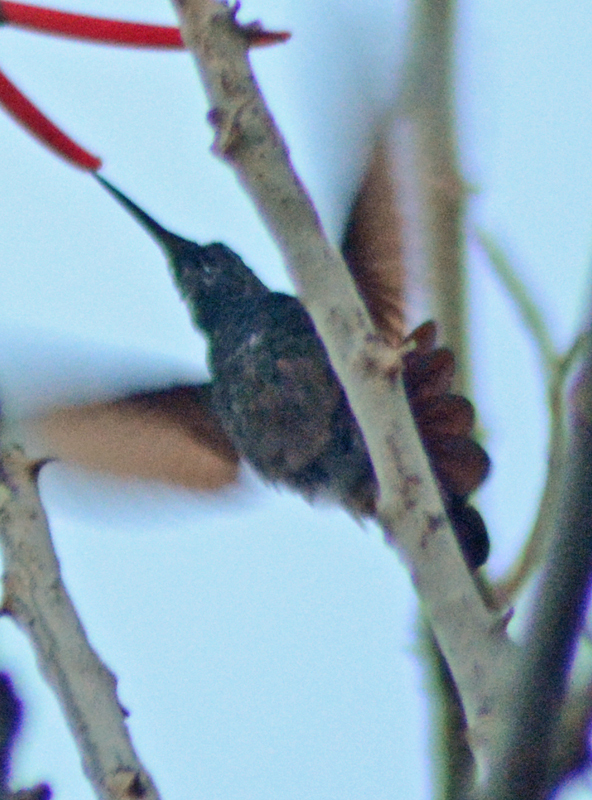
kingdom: Animalia
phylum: Chordata
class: Aves
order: Apodiformes
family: Trochilidae
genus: Saucerottia
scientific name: Saucerottia beryllina
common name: Berylline hummingbird
